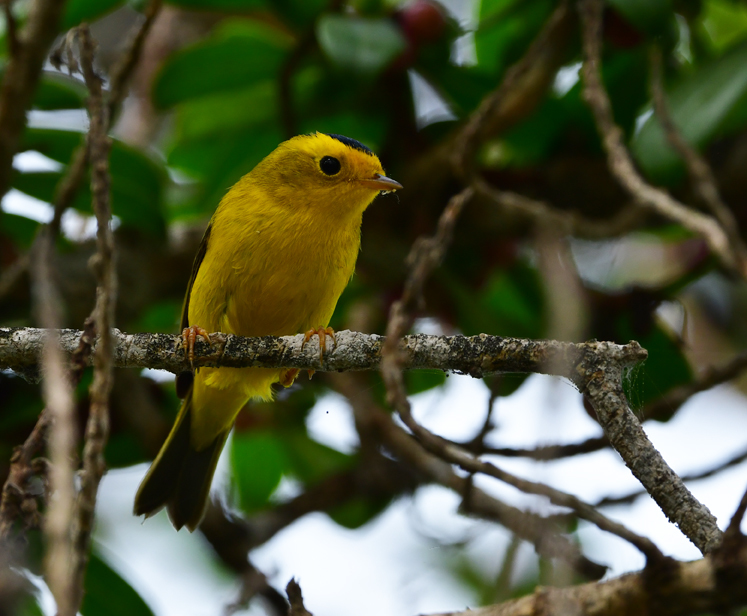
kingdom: Animalia
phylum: Chordata
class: Aves
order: Passeriformes
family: Parulidae
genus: Cardellina
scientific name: Cardellina pusilla
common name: Wilson's warbler
